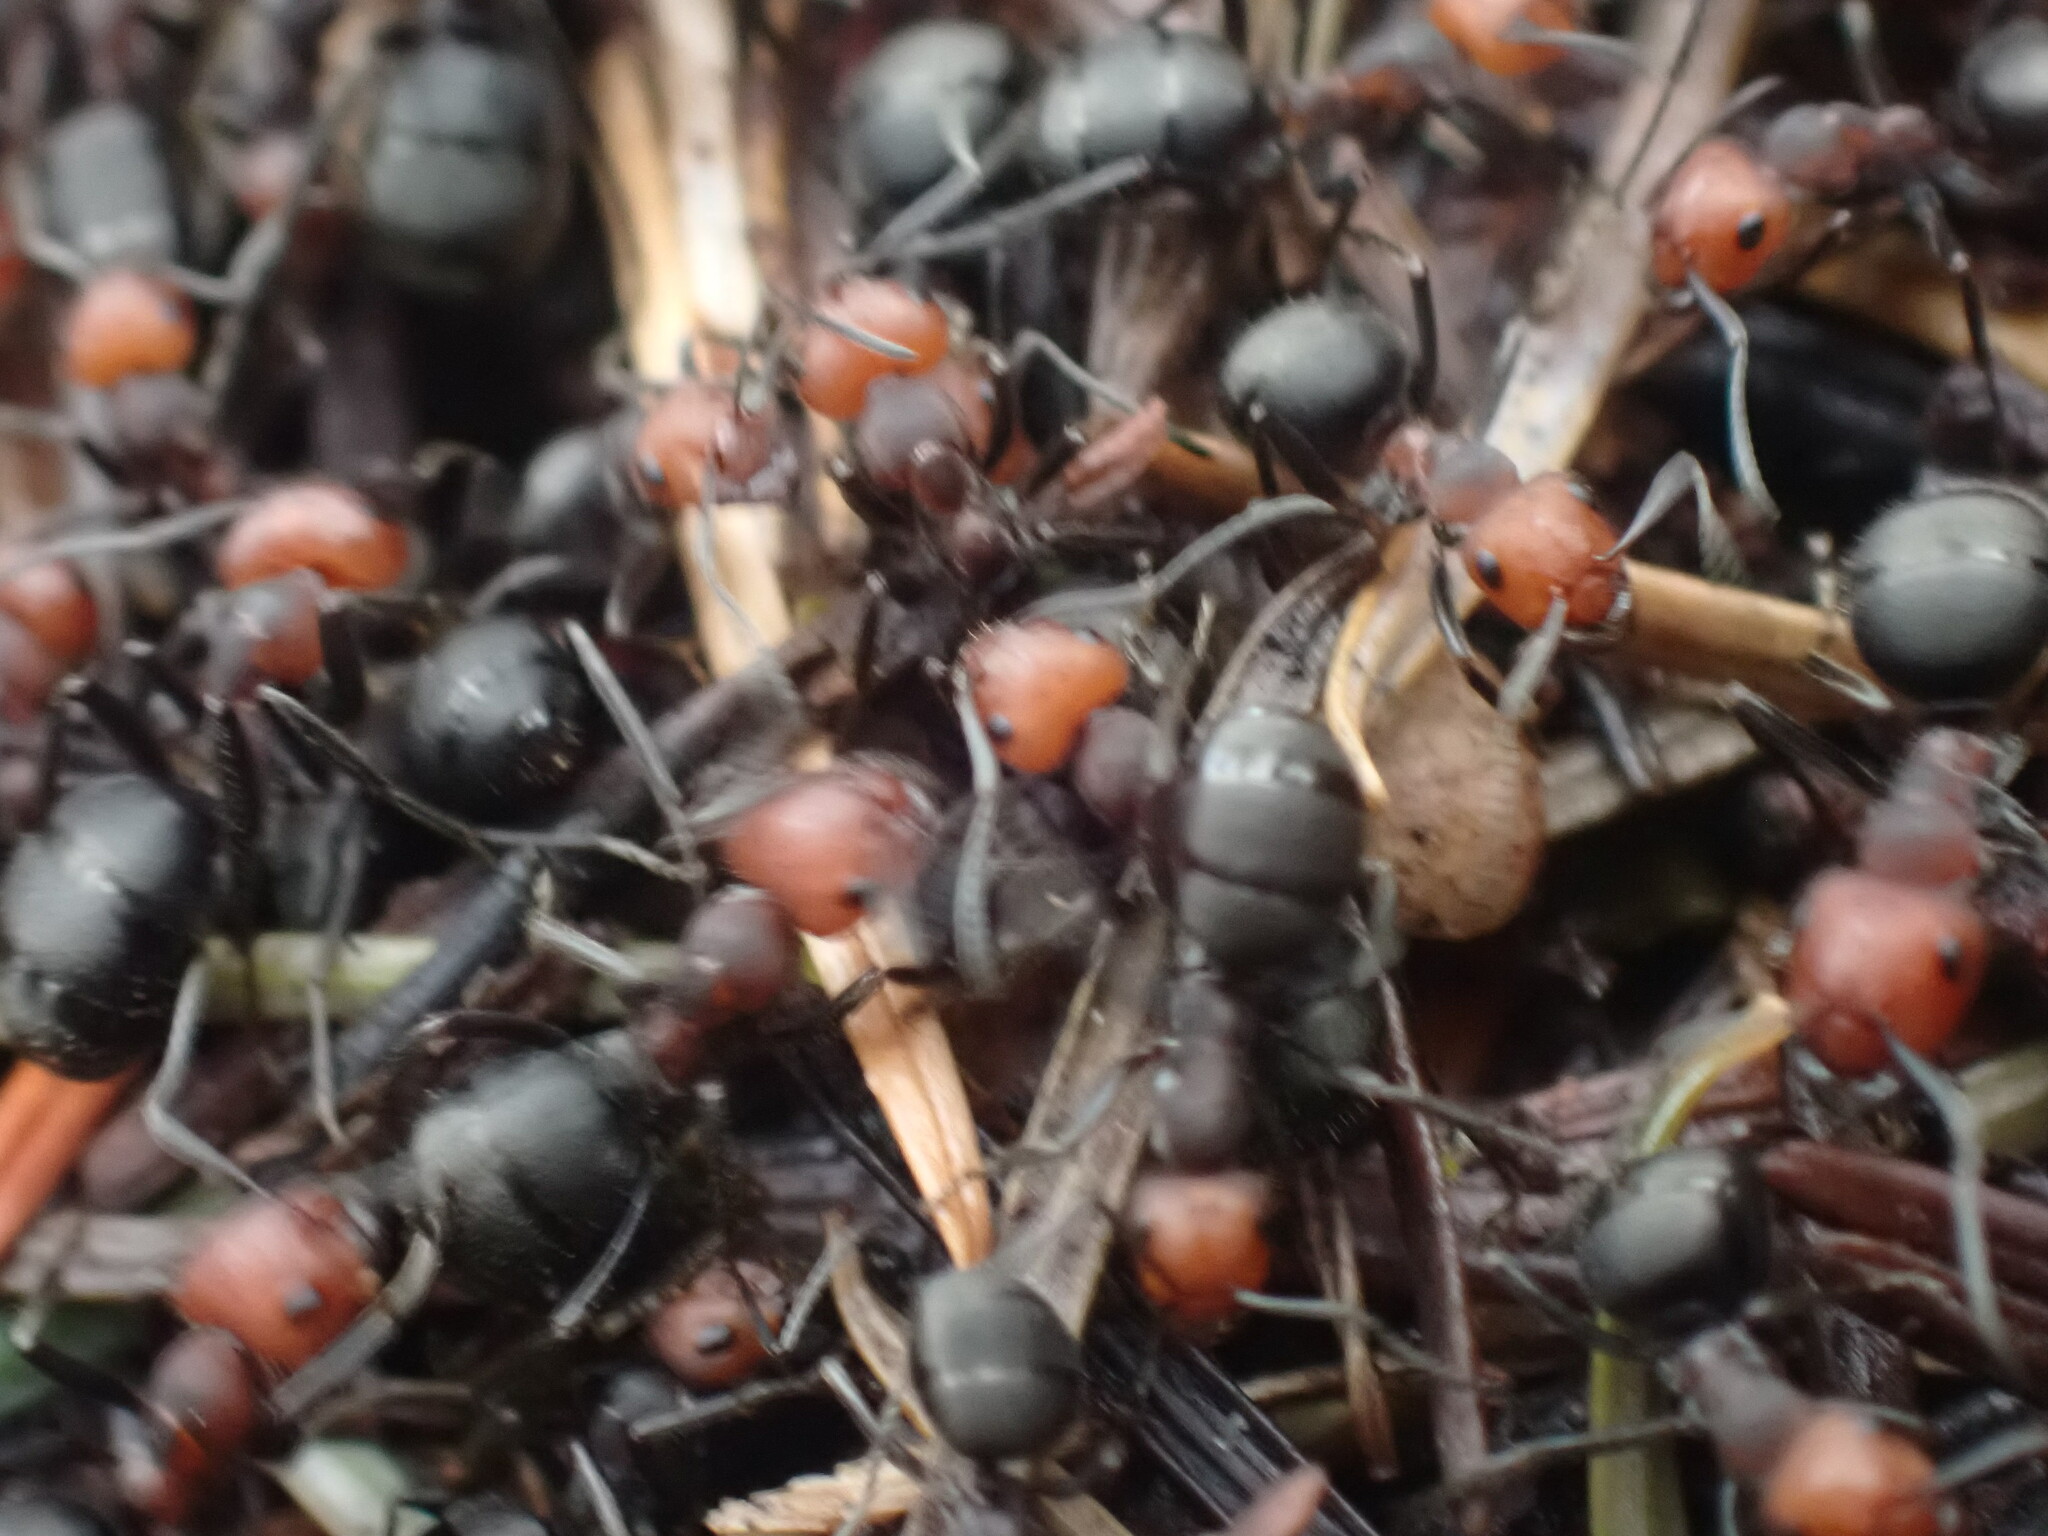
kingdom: Animalia
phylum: Arthropoda
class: Insecta
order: Hymenoptera
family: Formicidae
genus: Formica
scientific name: Formica obscuripes
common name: Western thatching ant
